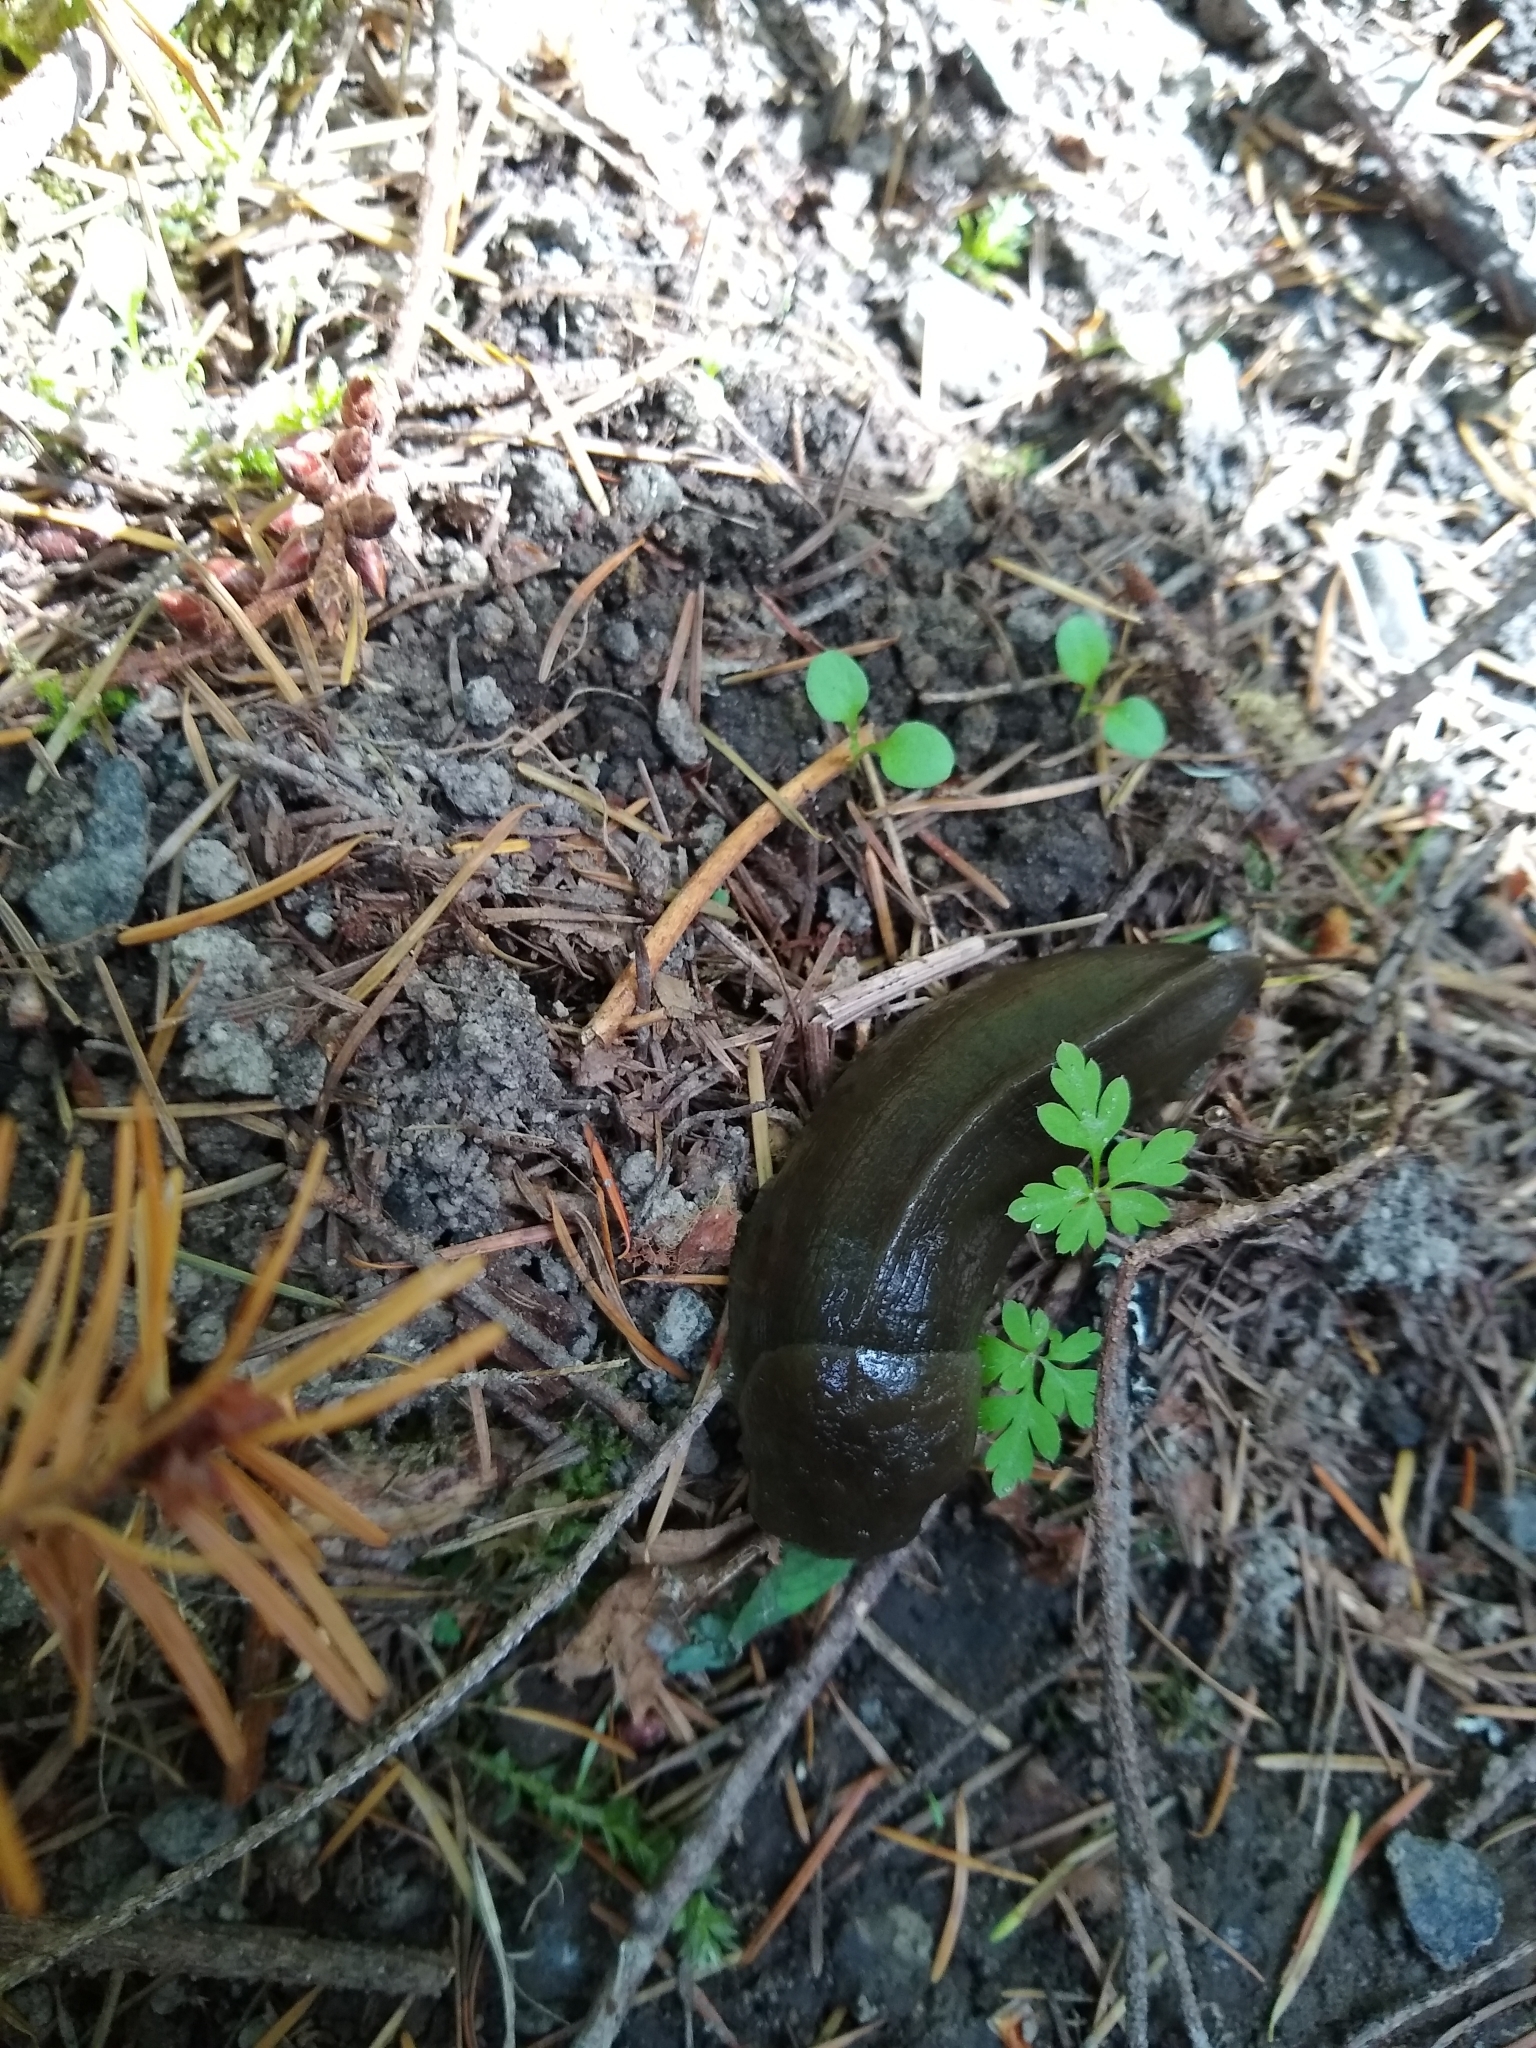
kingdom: Animalia
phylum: Mollusca
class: Gastropoda
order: Stylommatophora
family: Ariolimacidae
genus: Ariolimax
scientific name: Ariolimax columbianus
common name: Pacific banana slug
